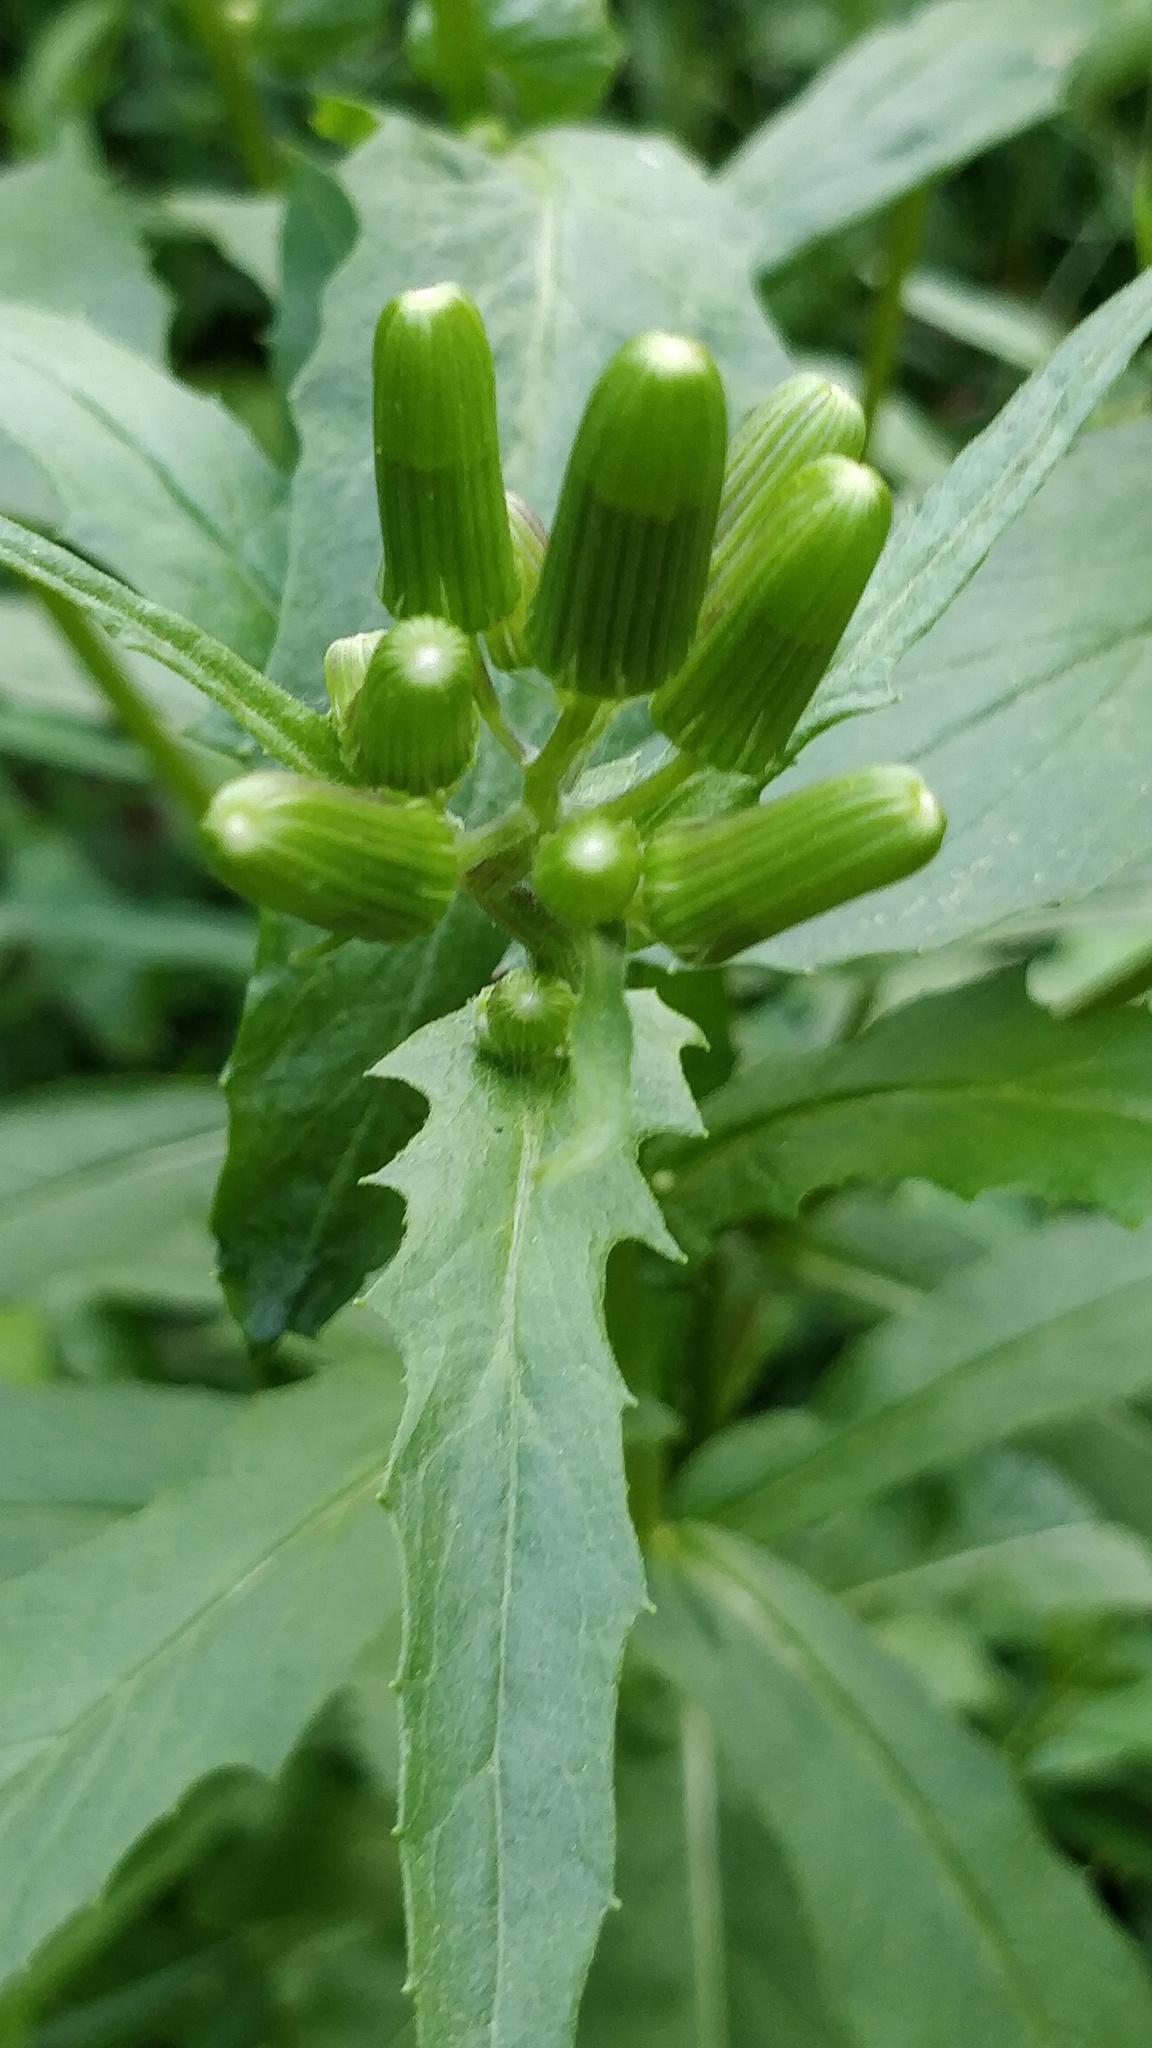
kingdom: Plantae
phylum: Tracheophyta
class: Magnoliopsida
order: Asterales
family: Asteraceae
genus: Erechtites
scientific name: Erechtites hieraciifolius
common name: American burnweed
